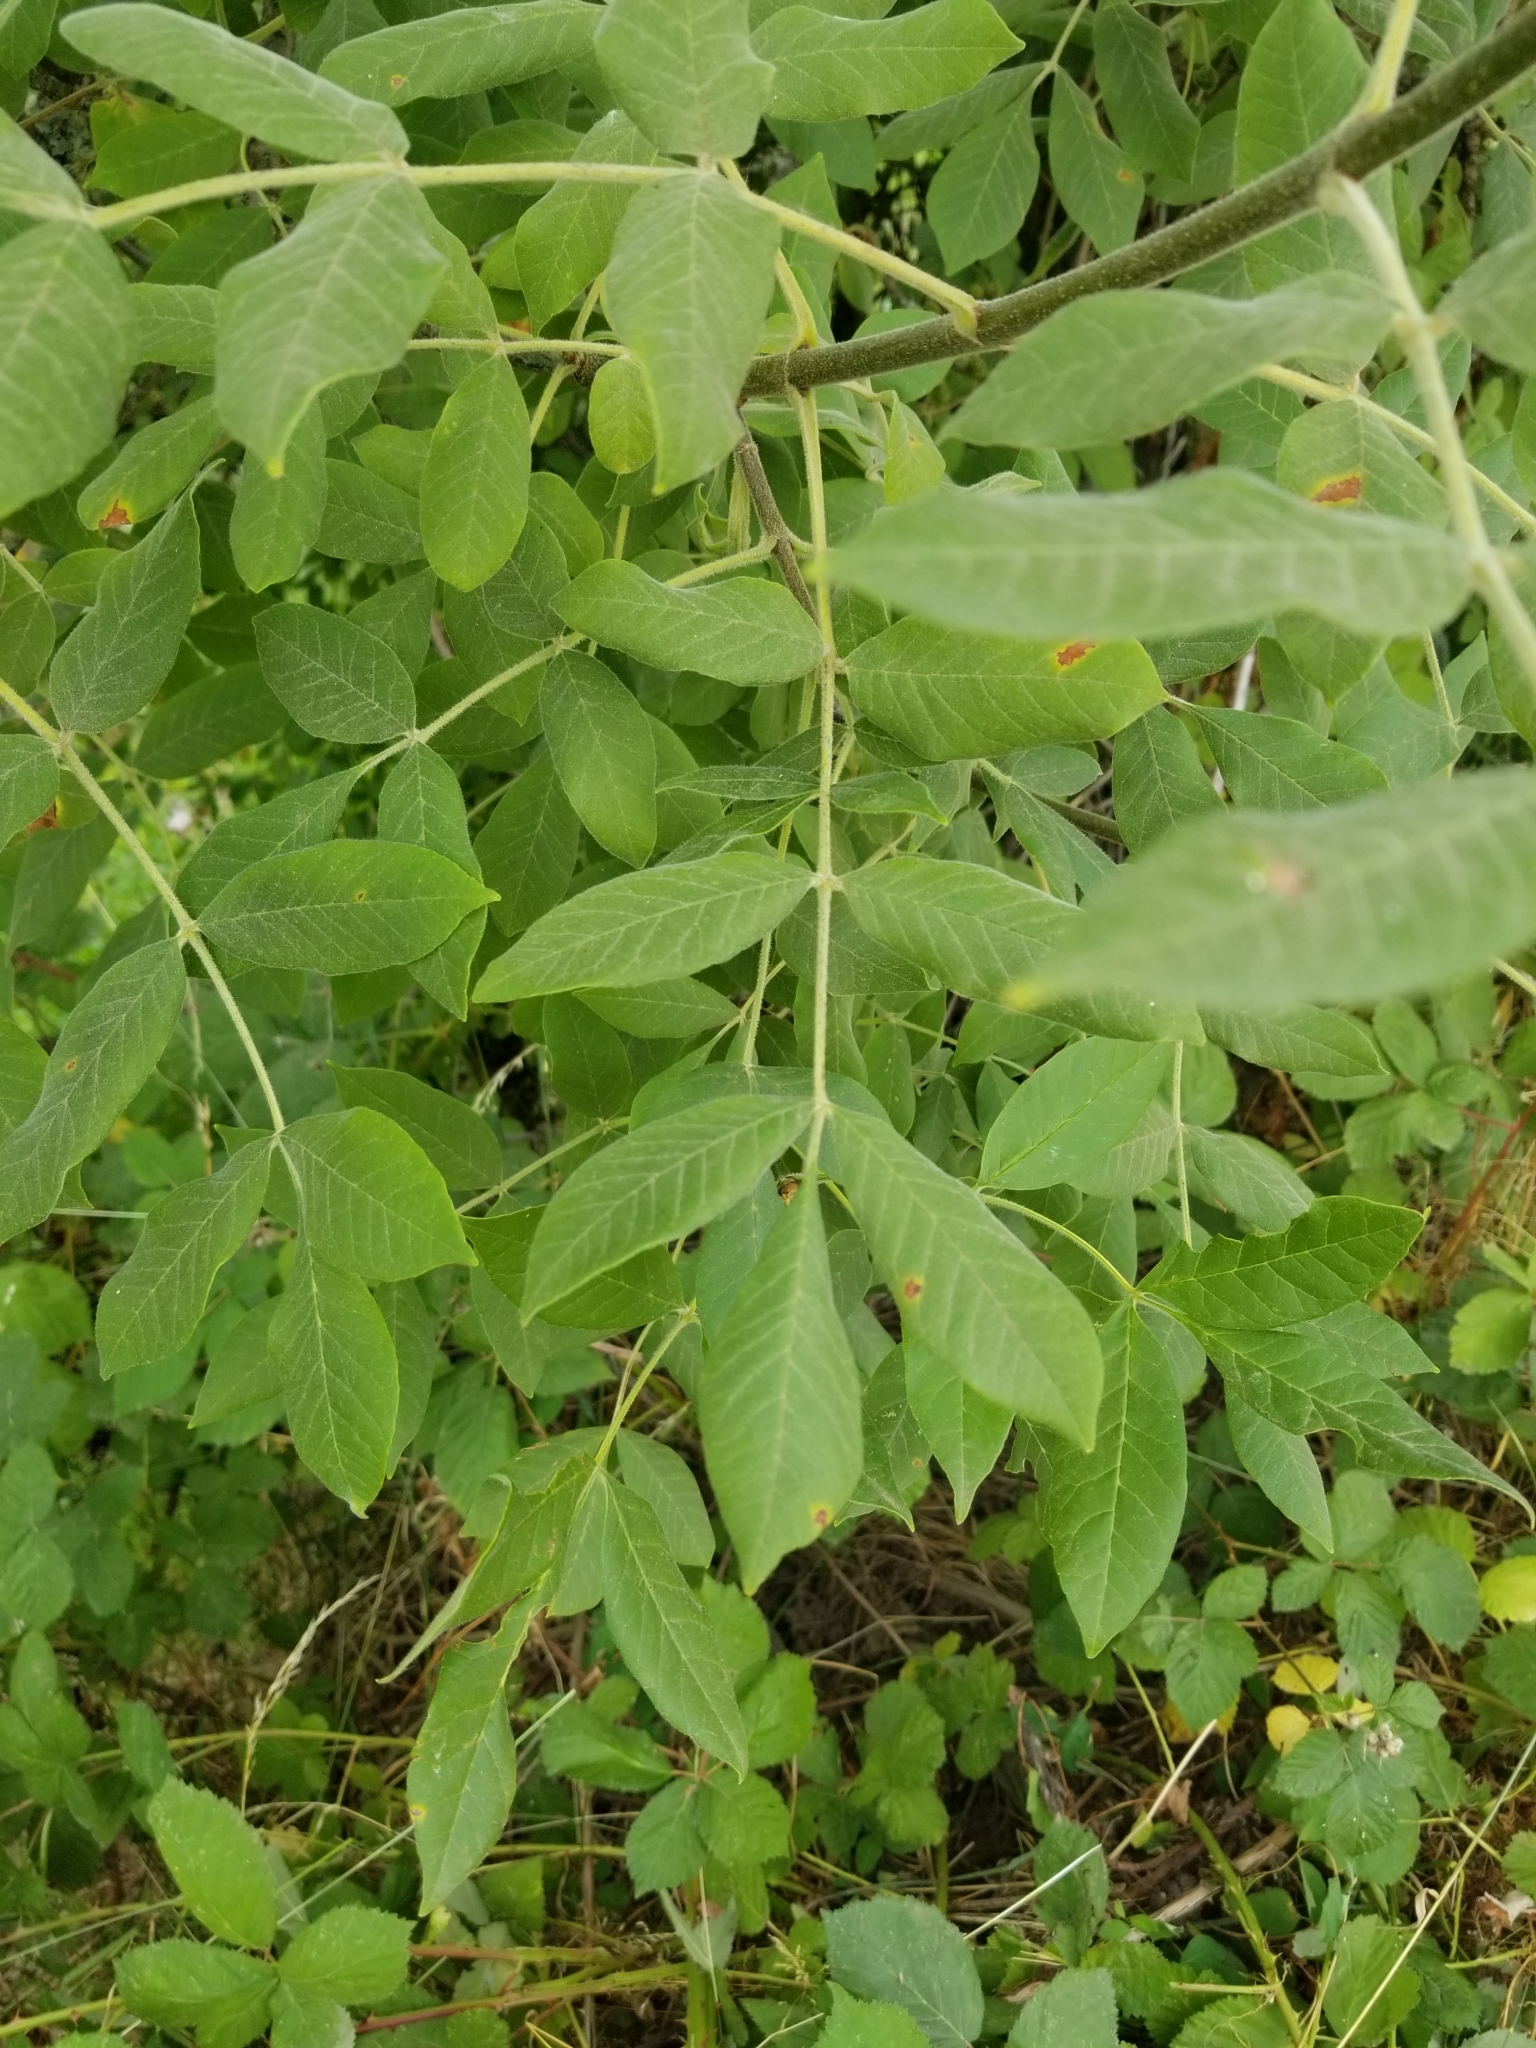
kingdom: Plantae
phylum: Tracheophyta
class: Magnoliopsida
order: Lamiales
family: Oleaceae
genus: Fraxinus
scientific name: Fraxinus latifolia
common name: Oregon ash
